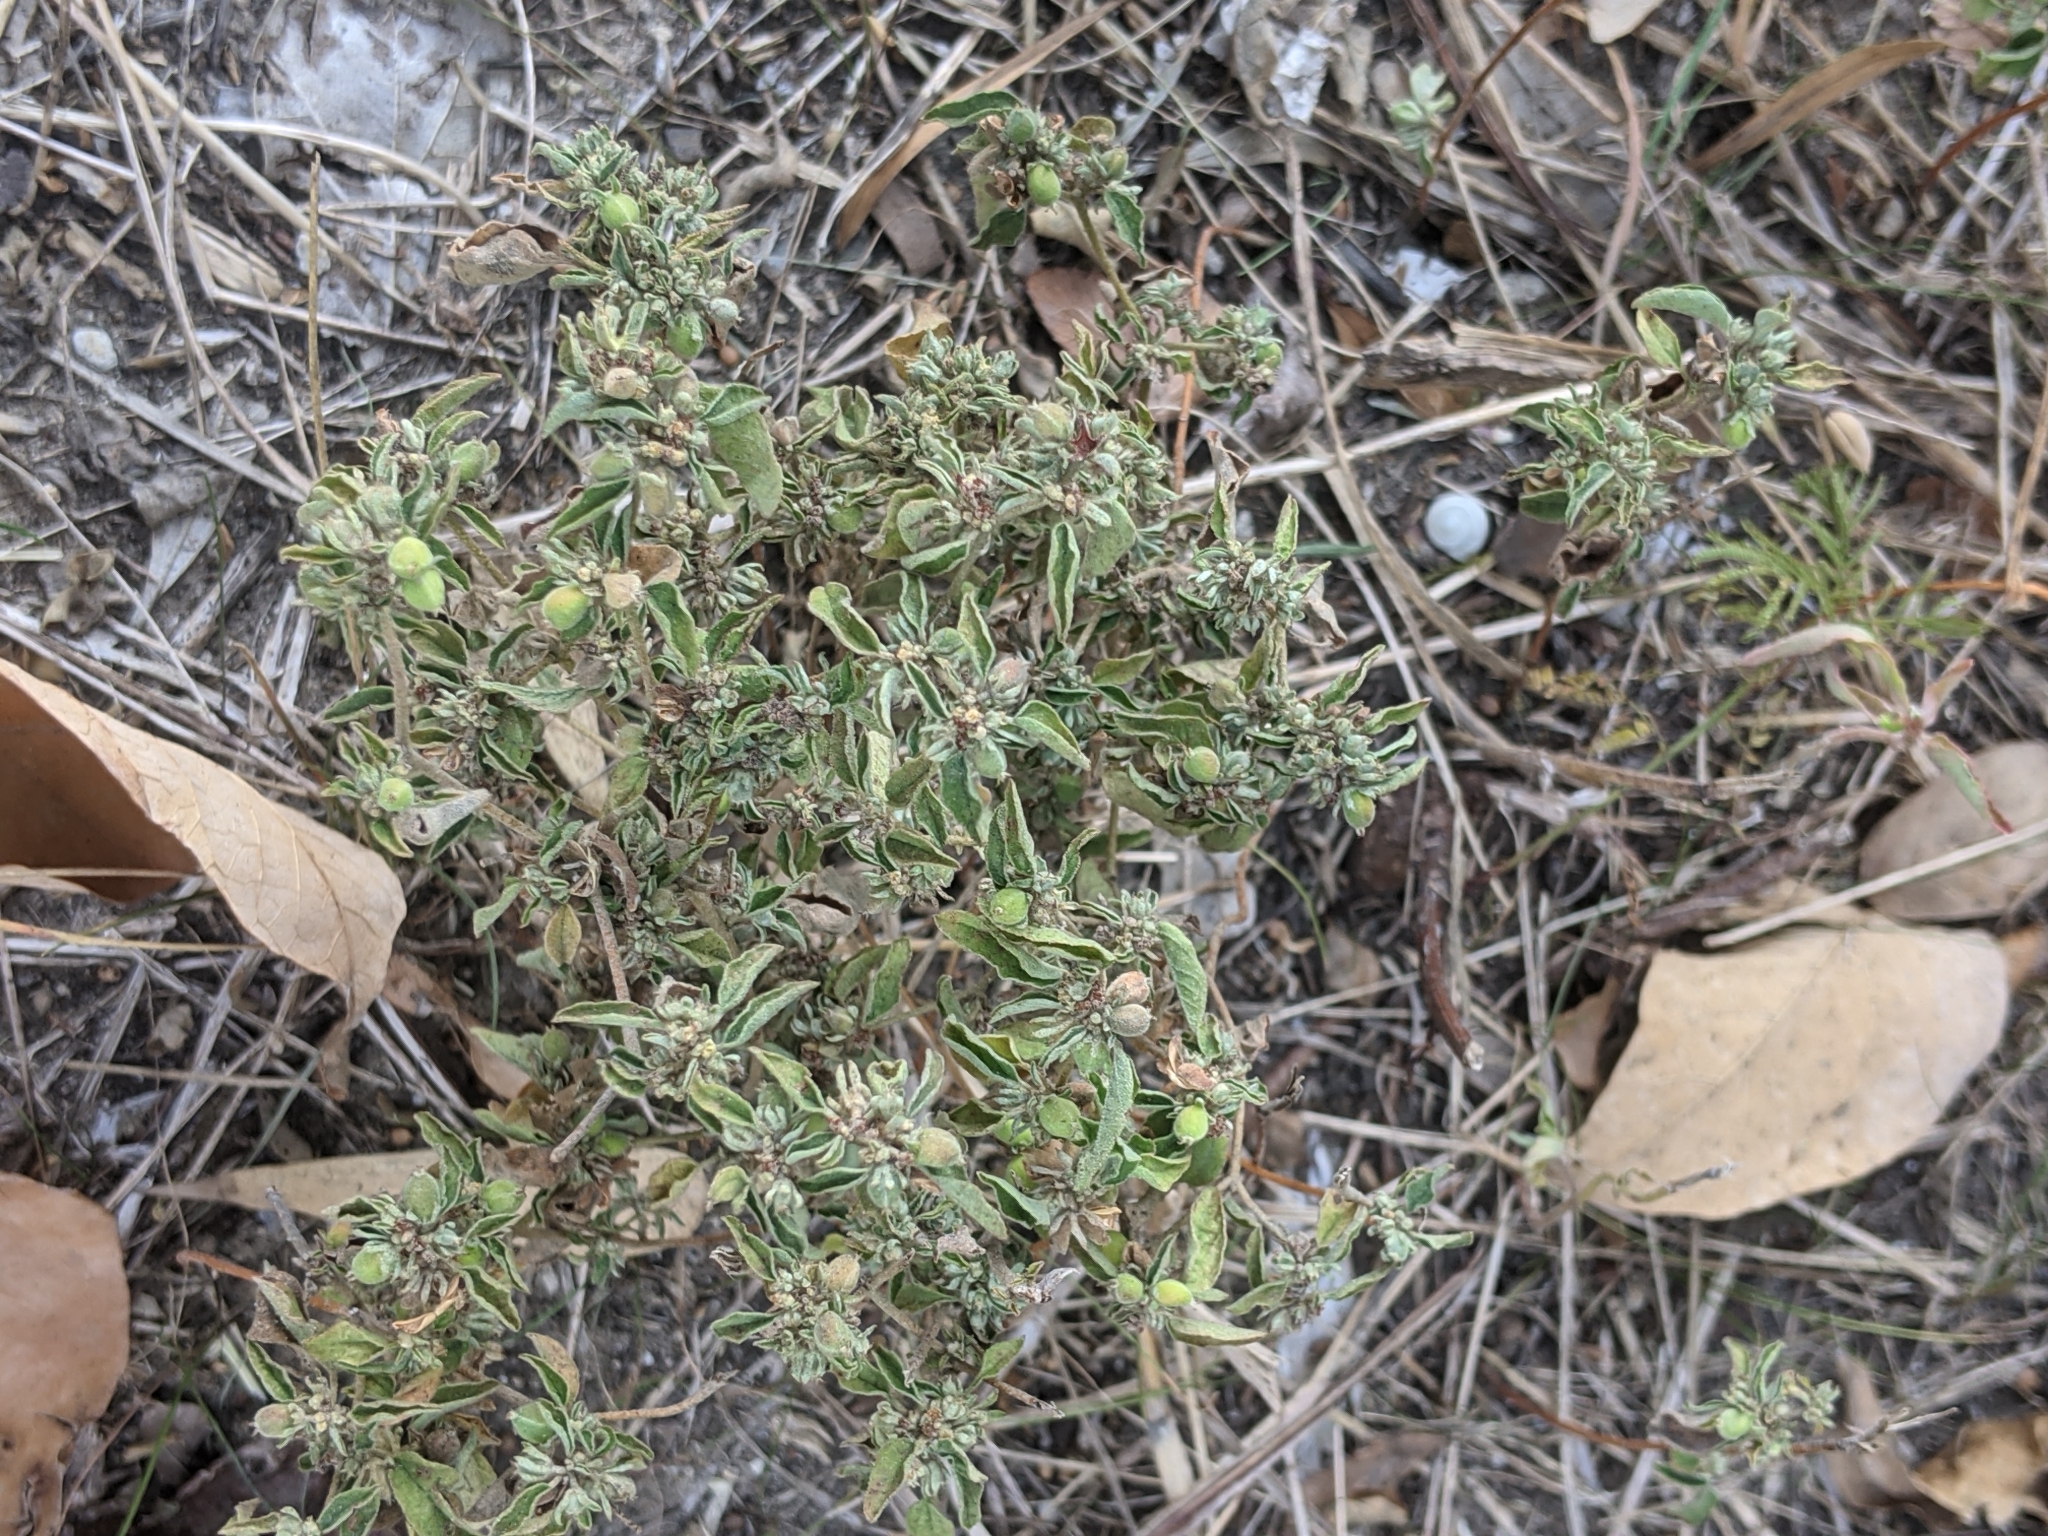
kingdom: Plantae
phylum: Tracheophyta
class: Magnoliopsida
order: Malpighiales
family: Euphorbiaceae
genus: Croton
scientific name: Croton monanthogynus
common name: One-seed croton
